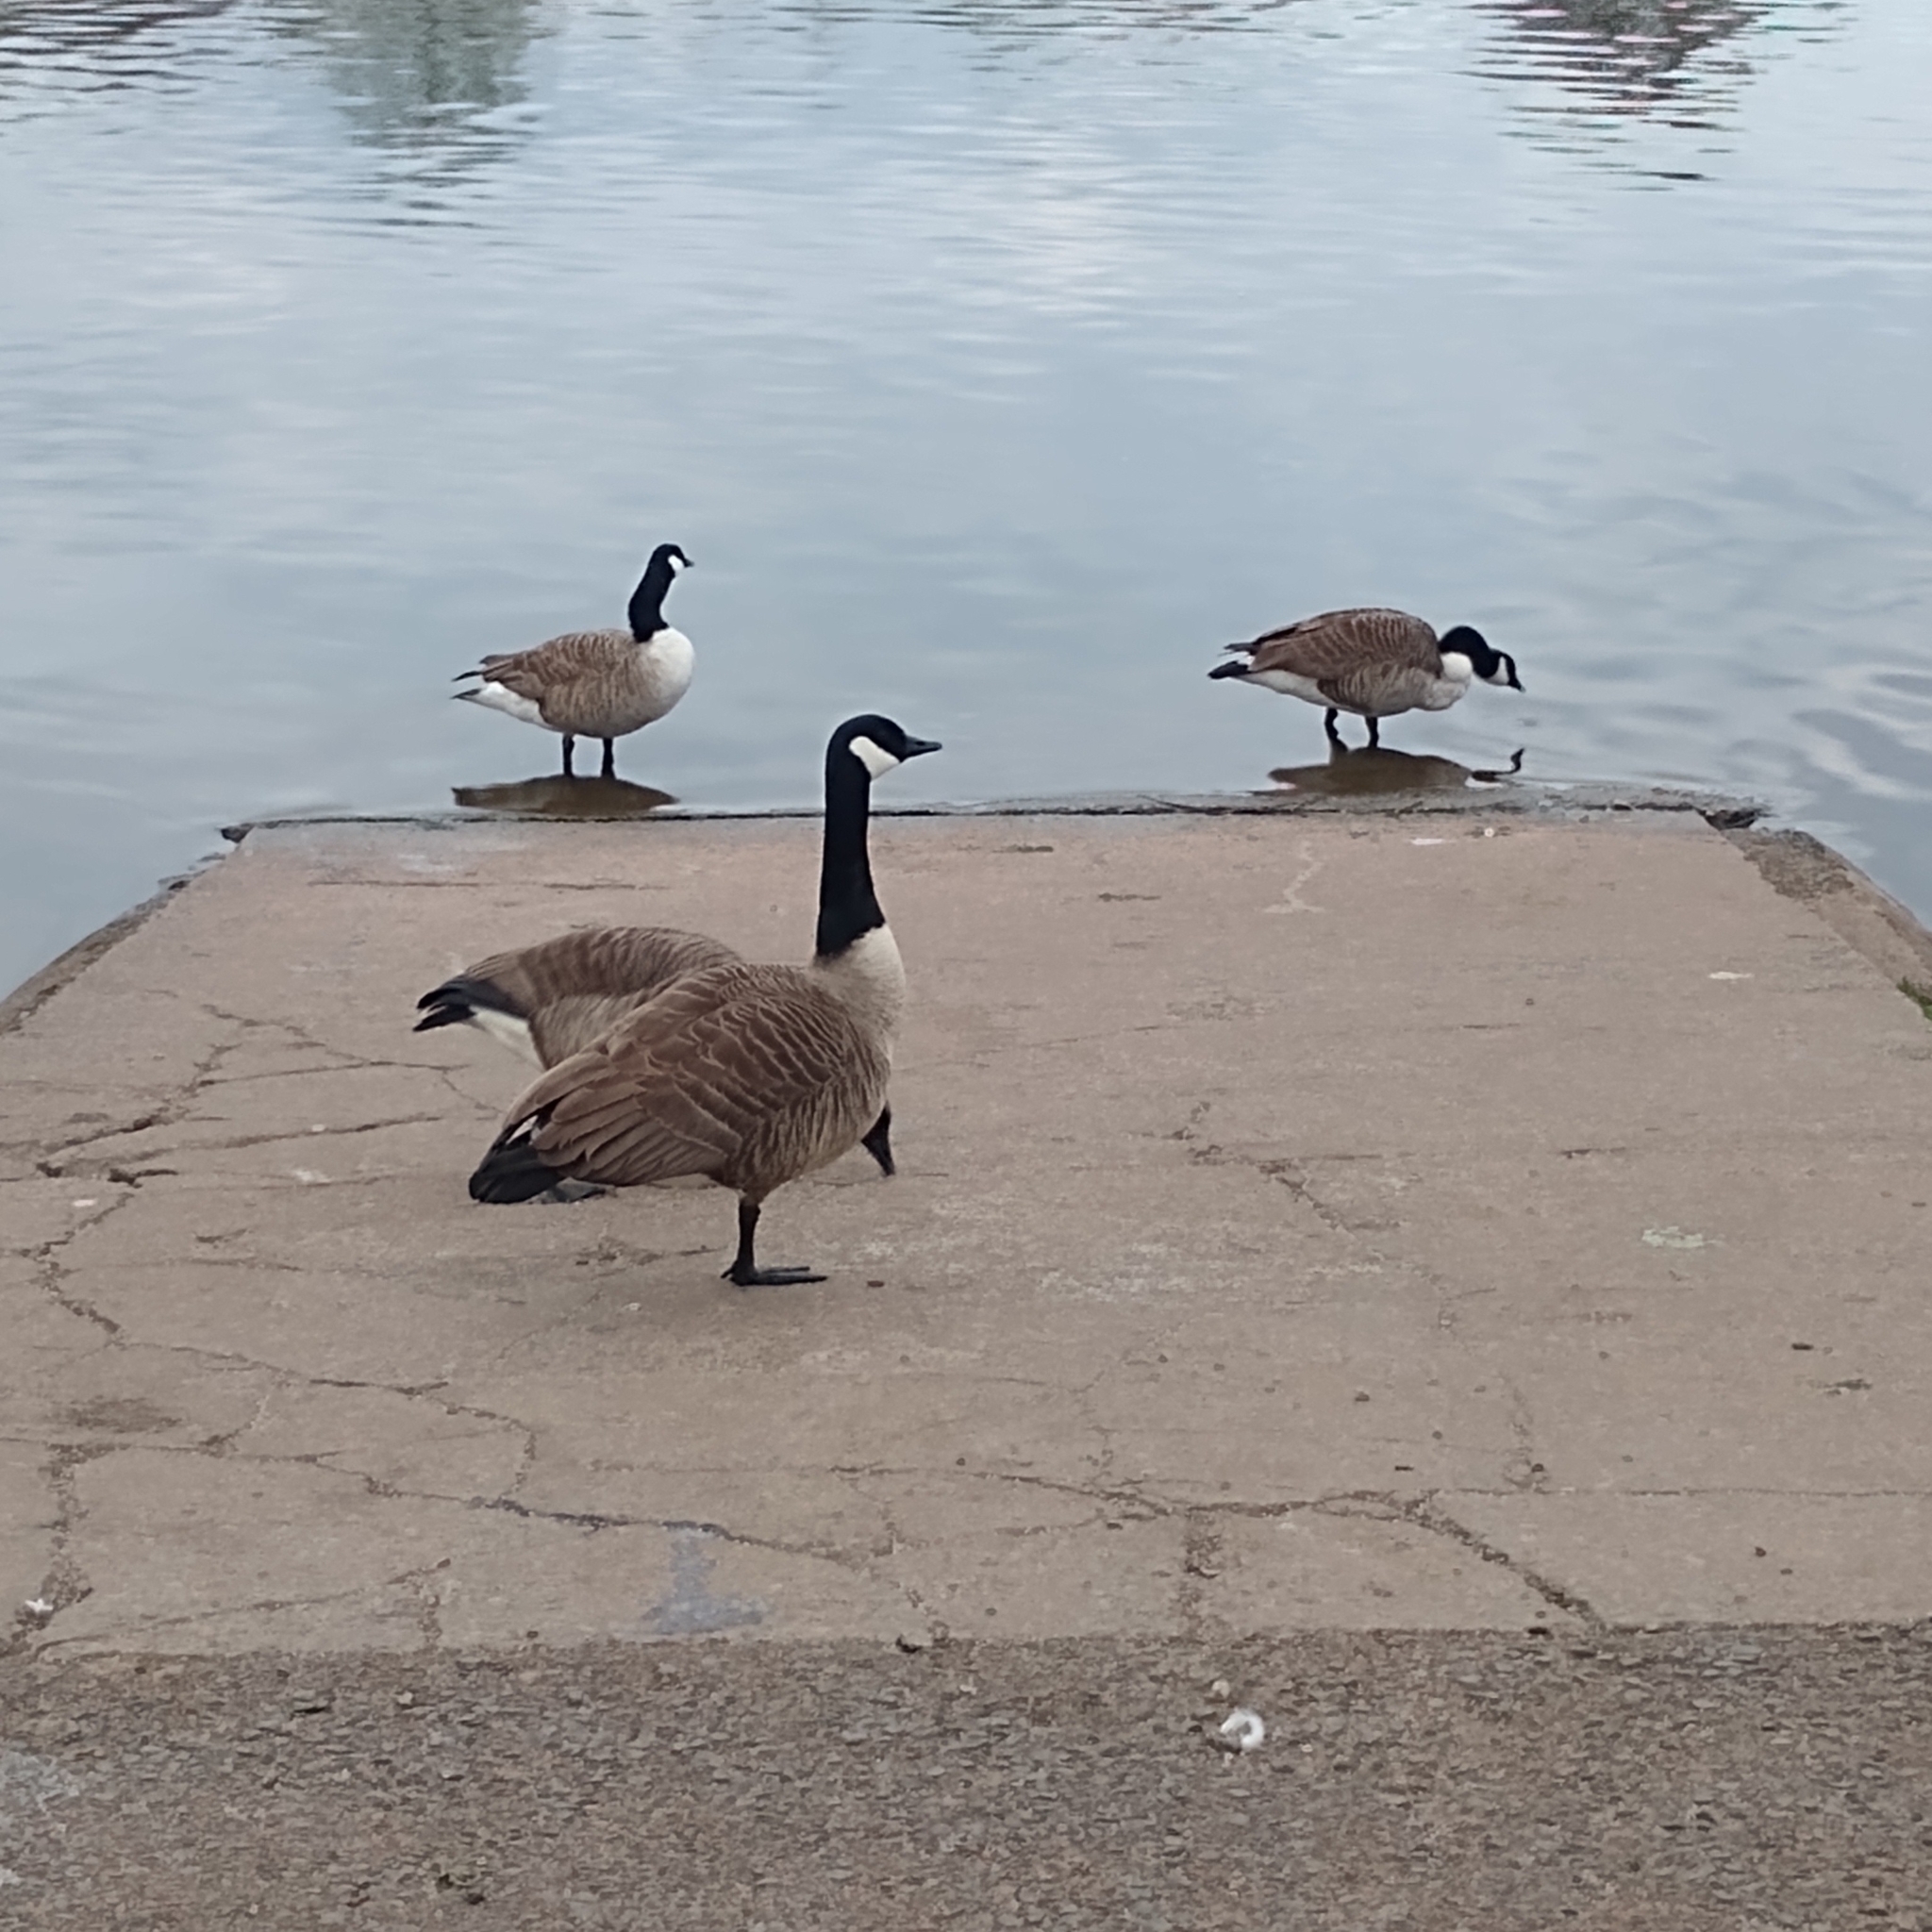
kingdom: Animalia
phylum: Chordata
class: Aves
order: Anseriformes
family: Anatidae
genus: Branta
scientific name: Branta canadensis
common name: Canada goose
